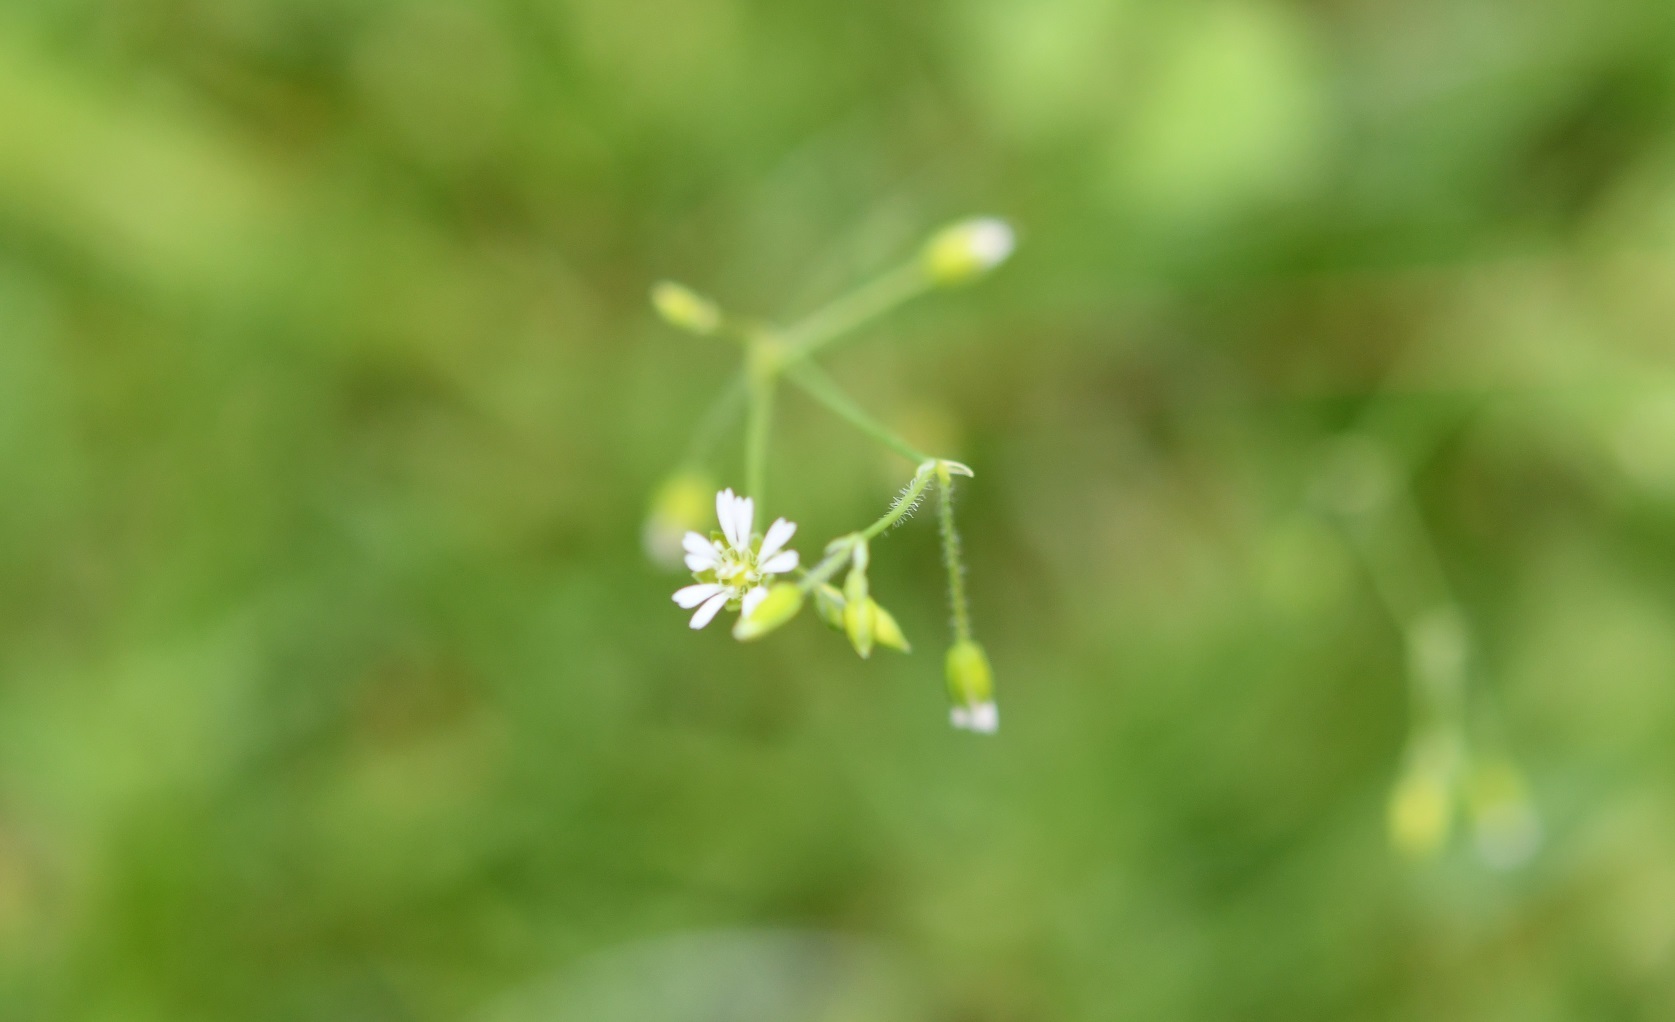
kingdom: Plantae
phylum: Tracheophyta
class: Magnoliopsida
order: Caryophyllales
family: Caryophyllaceae
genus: Drymaria
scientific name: Drymaria villosa
